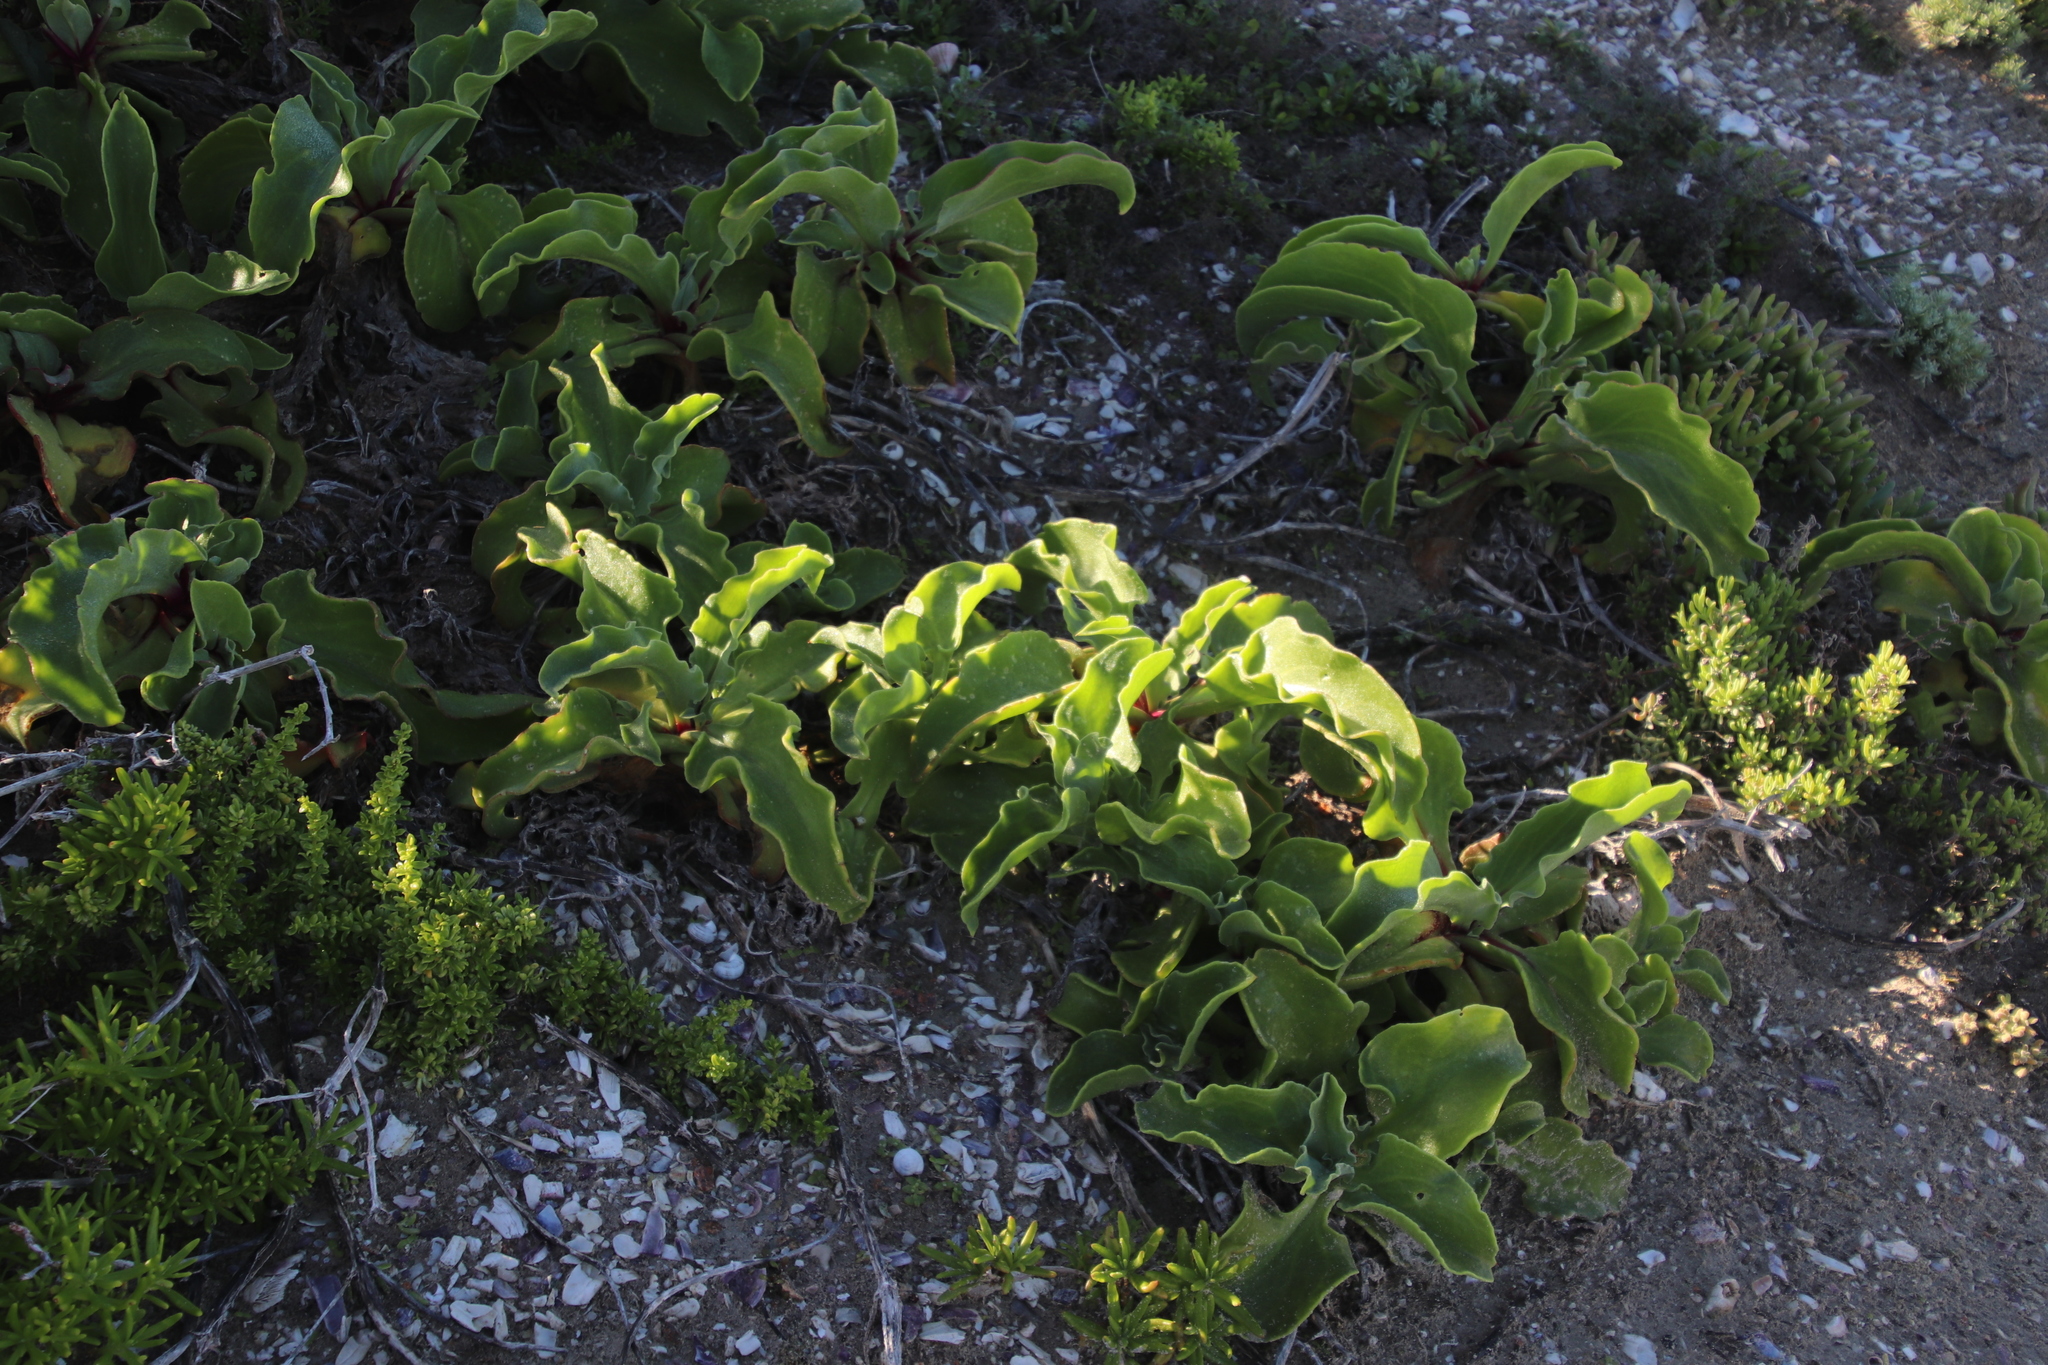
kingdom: Plantae
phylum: Tracheophyta
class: Magnoliopsida
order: Caryophyllales
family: Aizoaceae
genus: Mesembryanthemum
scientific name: Mesembryanthemum guerichianum
